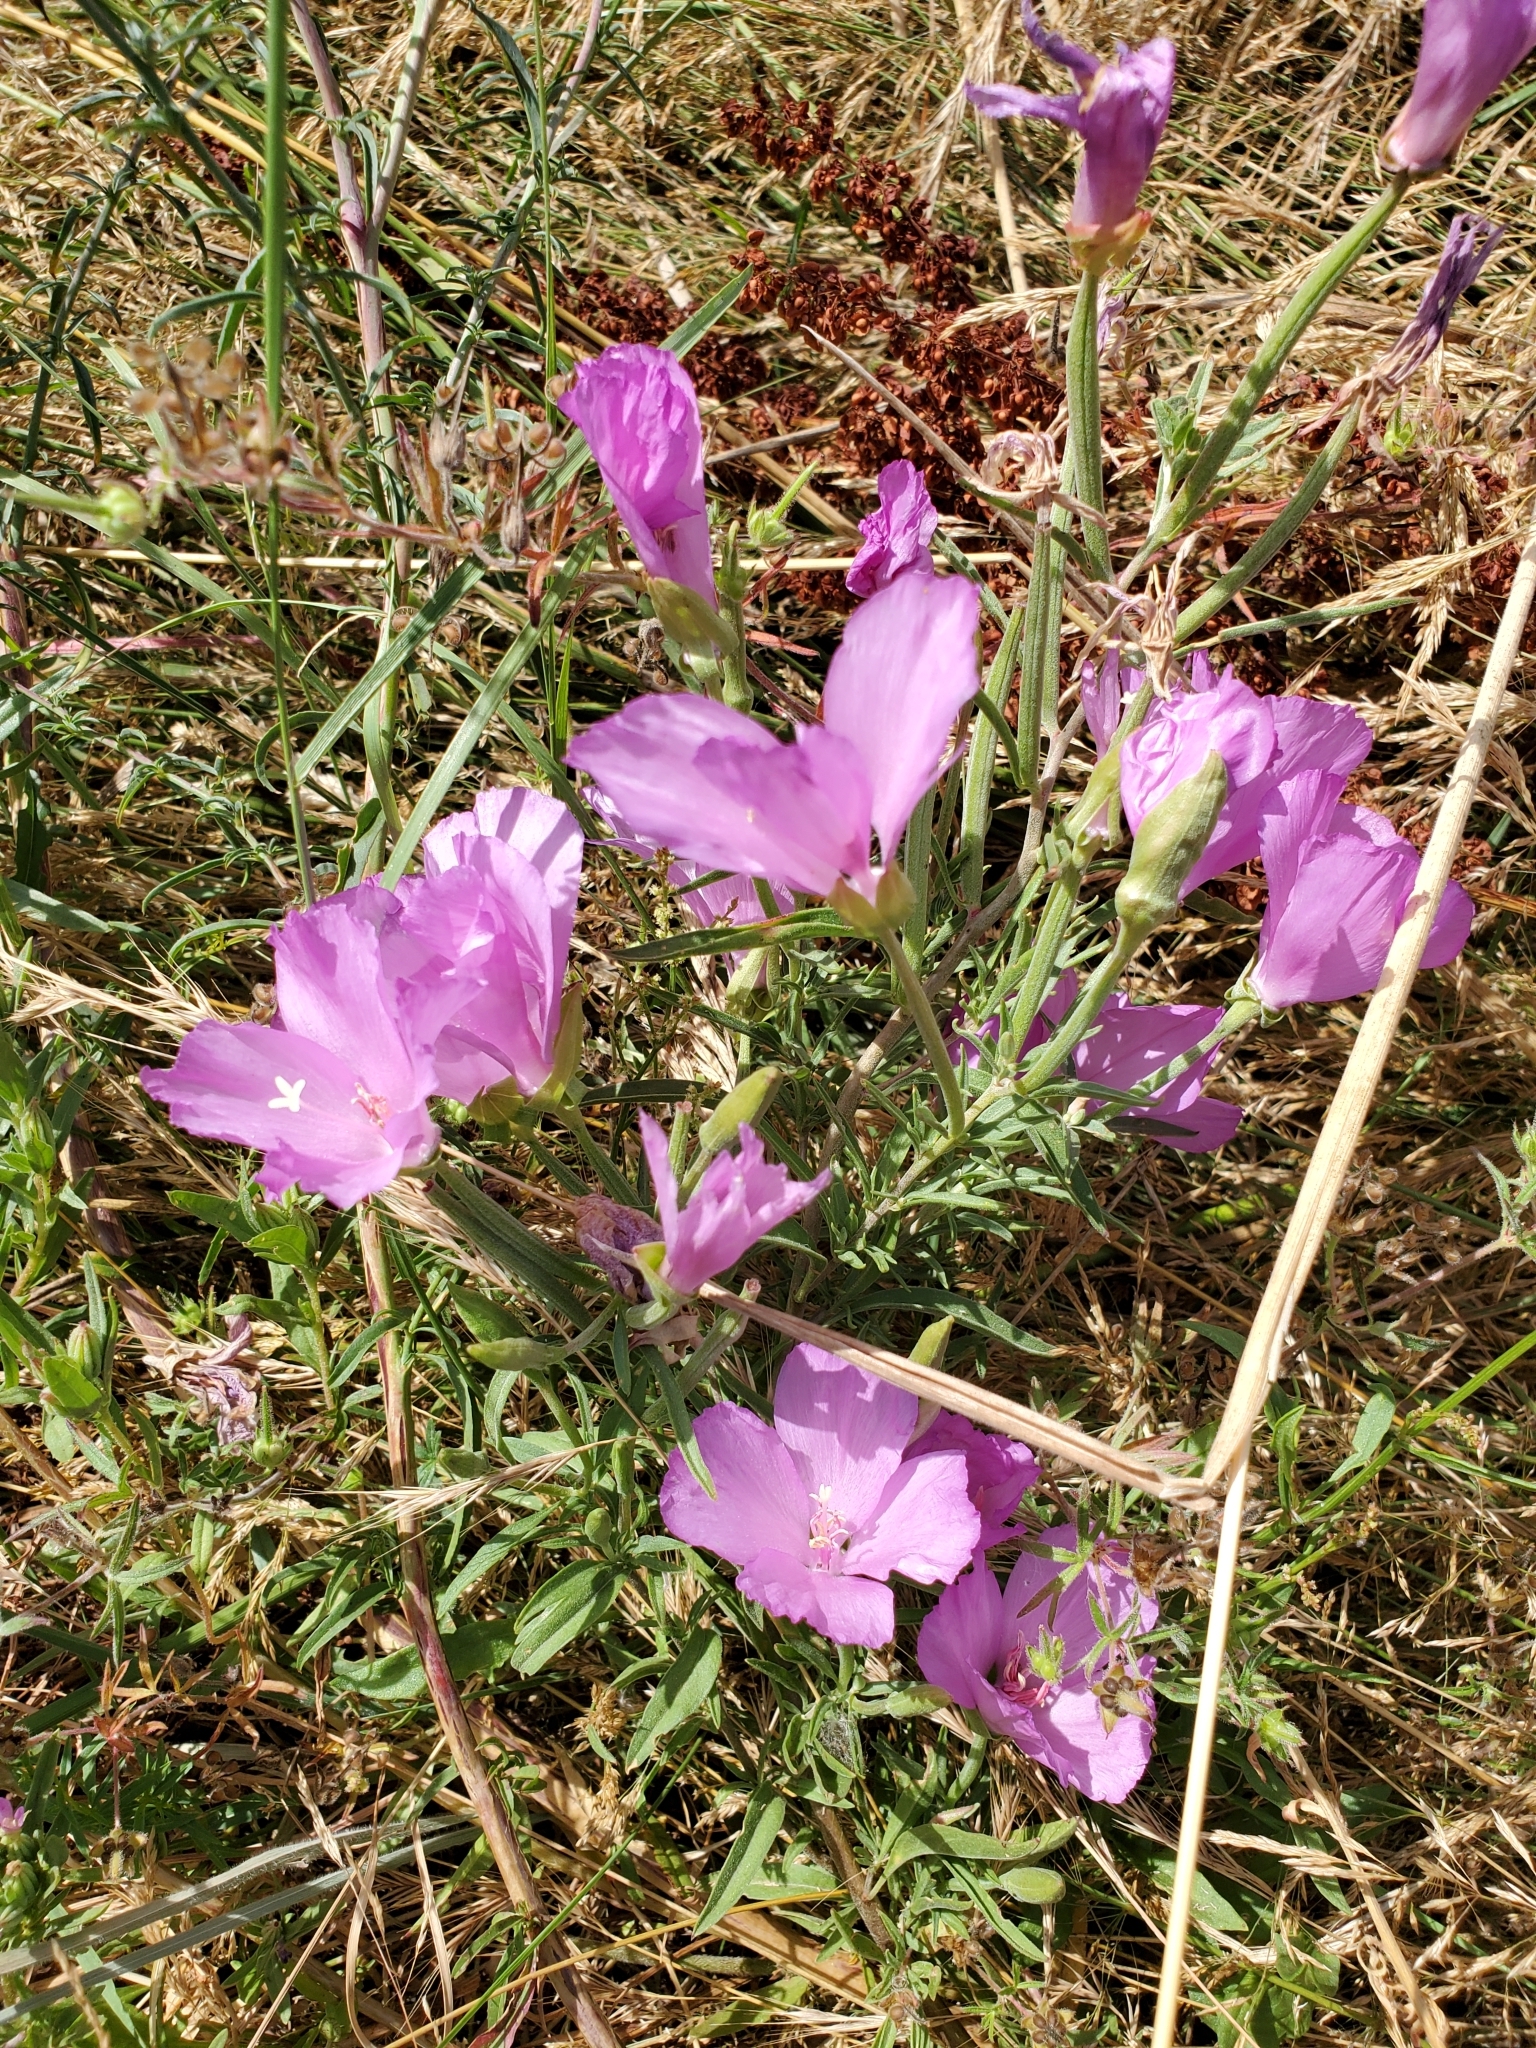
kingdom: Plantae
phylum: Tracheophyta
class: Magnoliopsida
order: Myrtales
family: Onagraceae
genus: Clarkia
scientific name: Clarkia amoena
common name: Godetia
